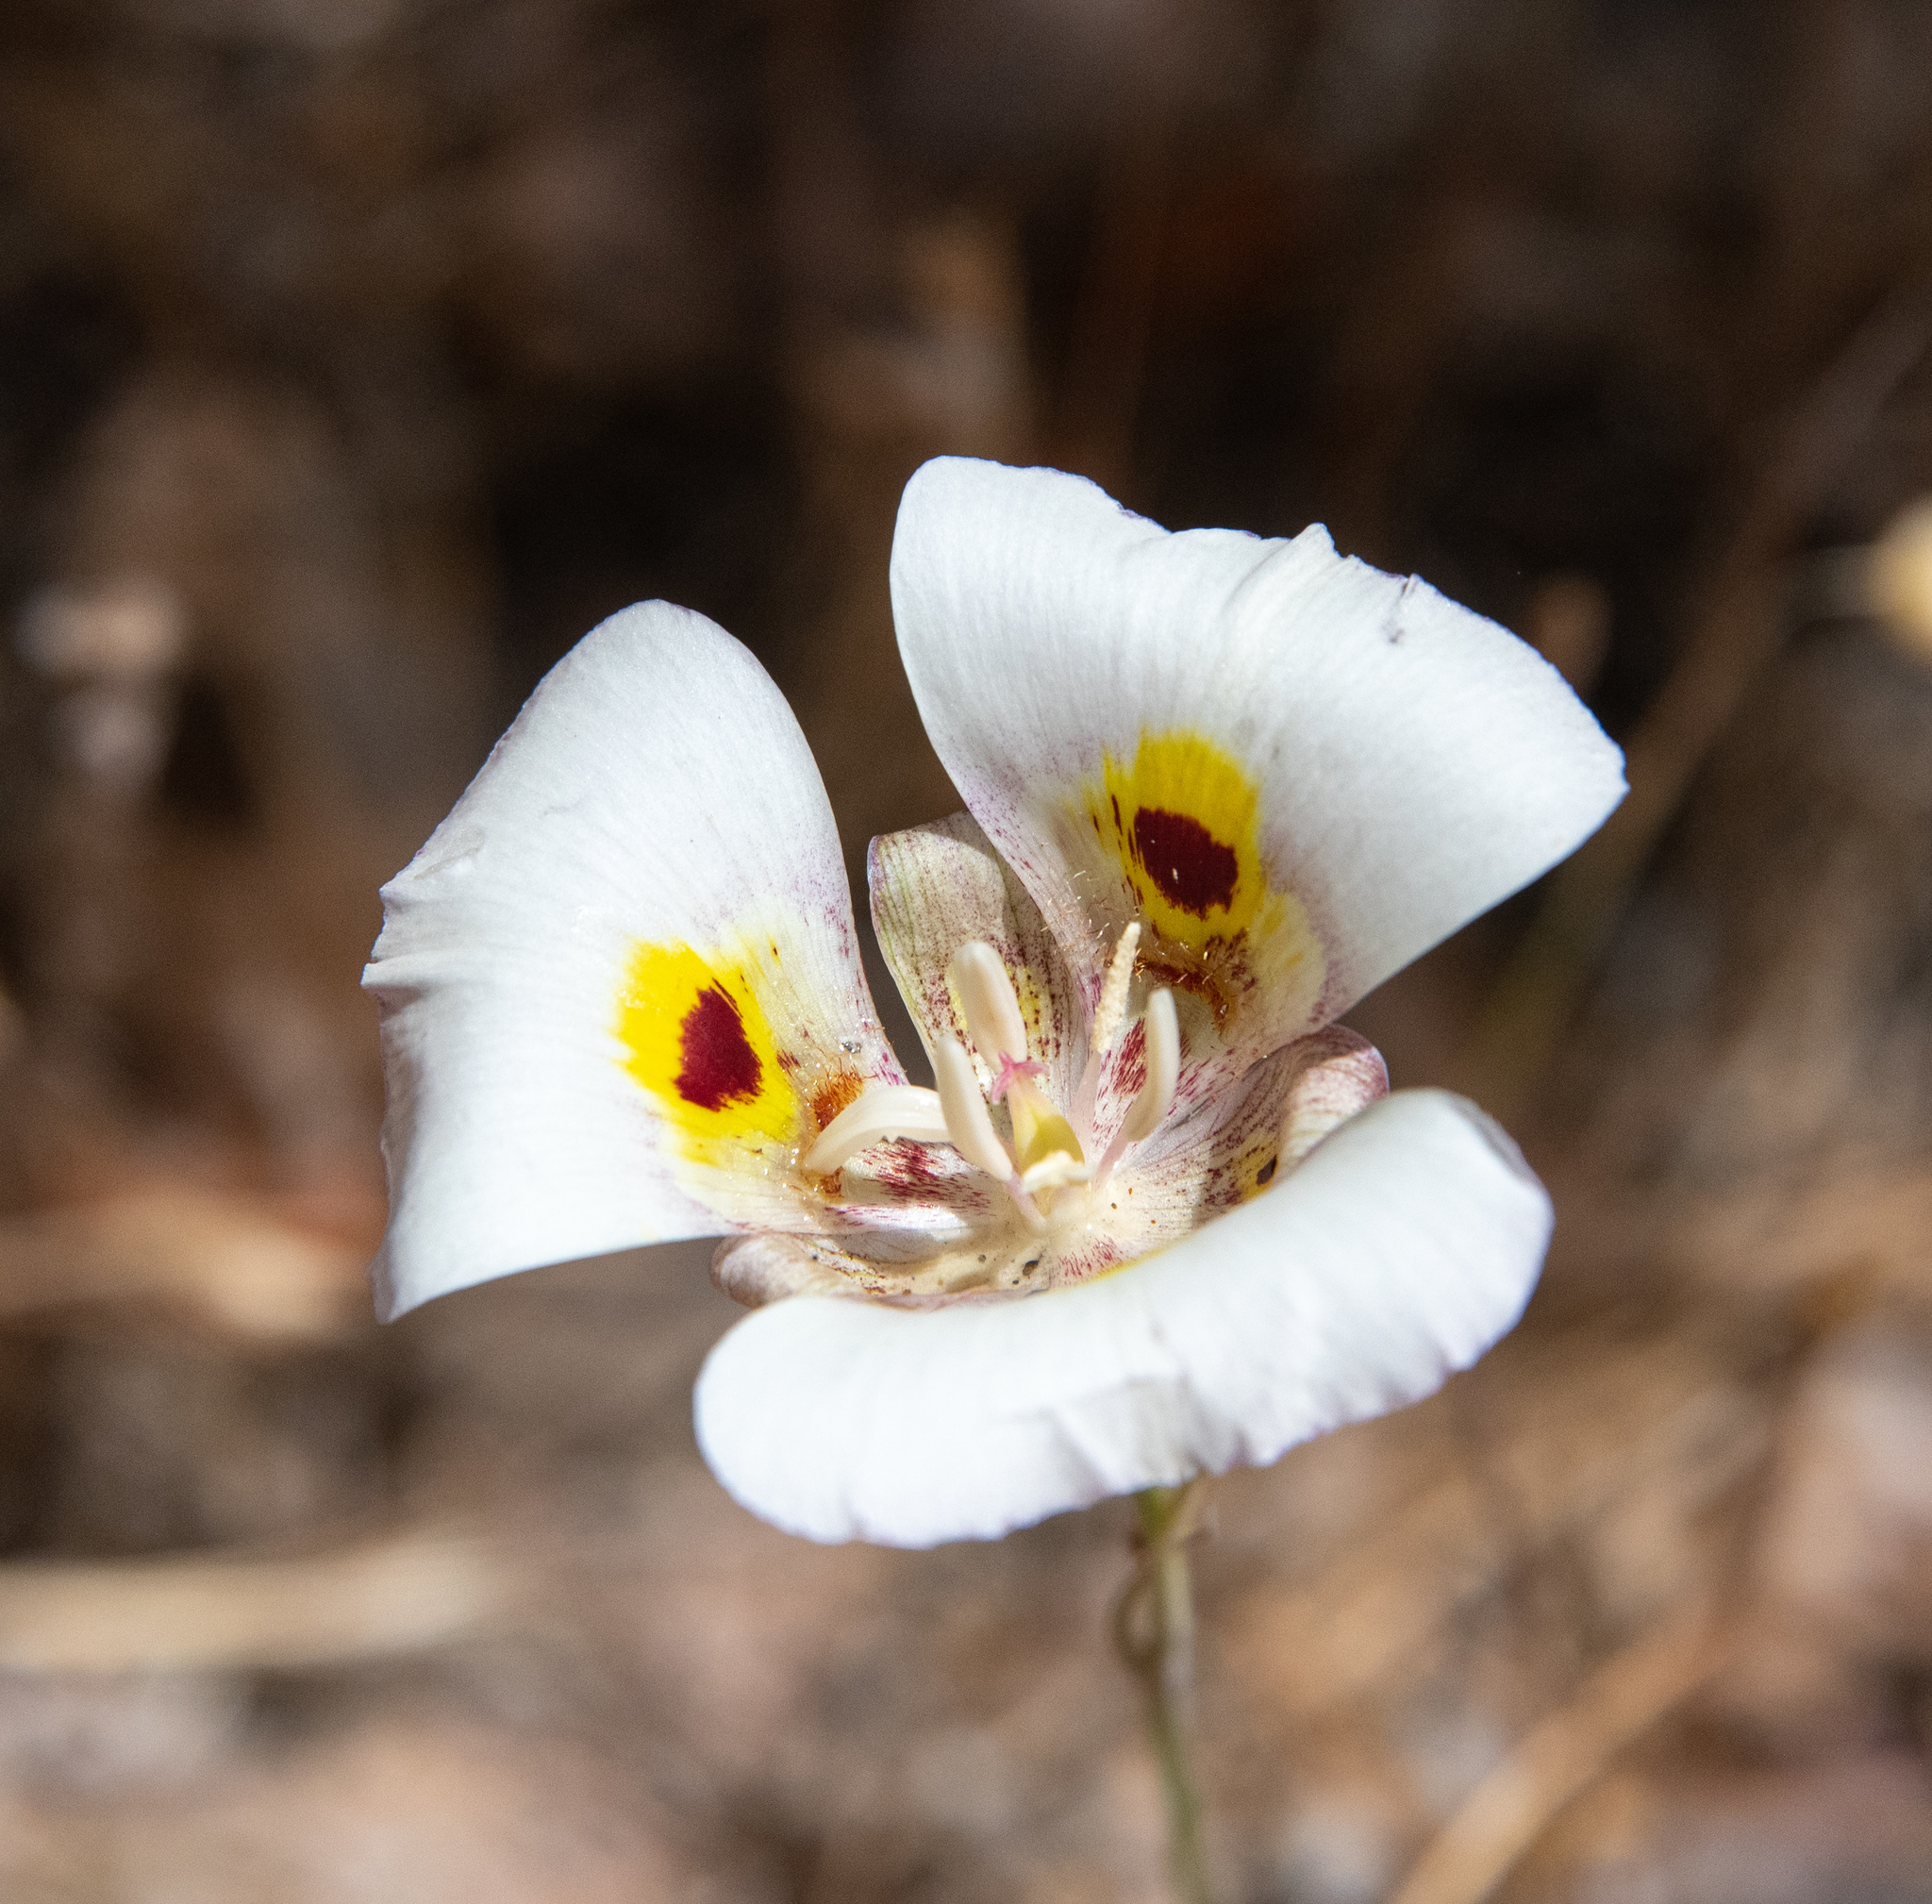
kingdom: Plantae
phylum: Tracheophyta
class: Liliopsida
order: Liliales
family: Liliaceae
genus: Calochortus
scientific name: Calochortus superbus
